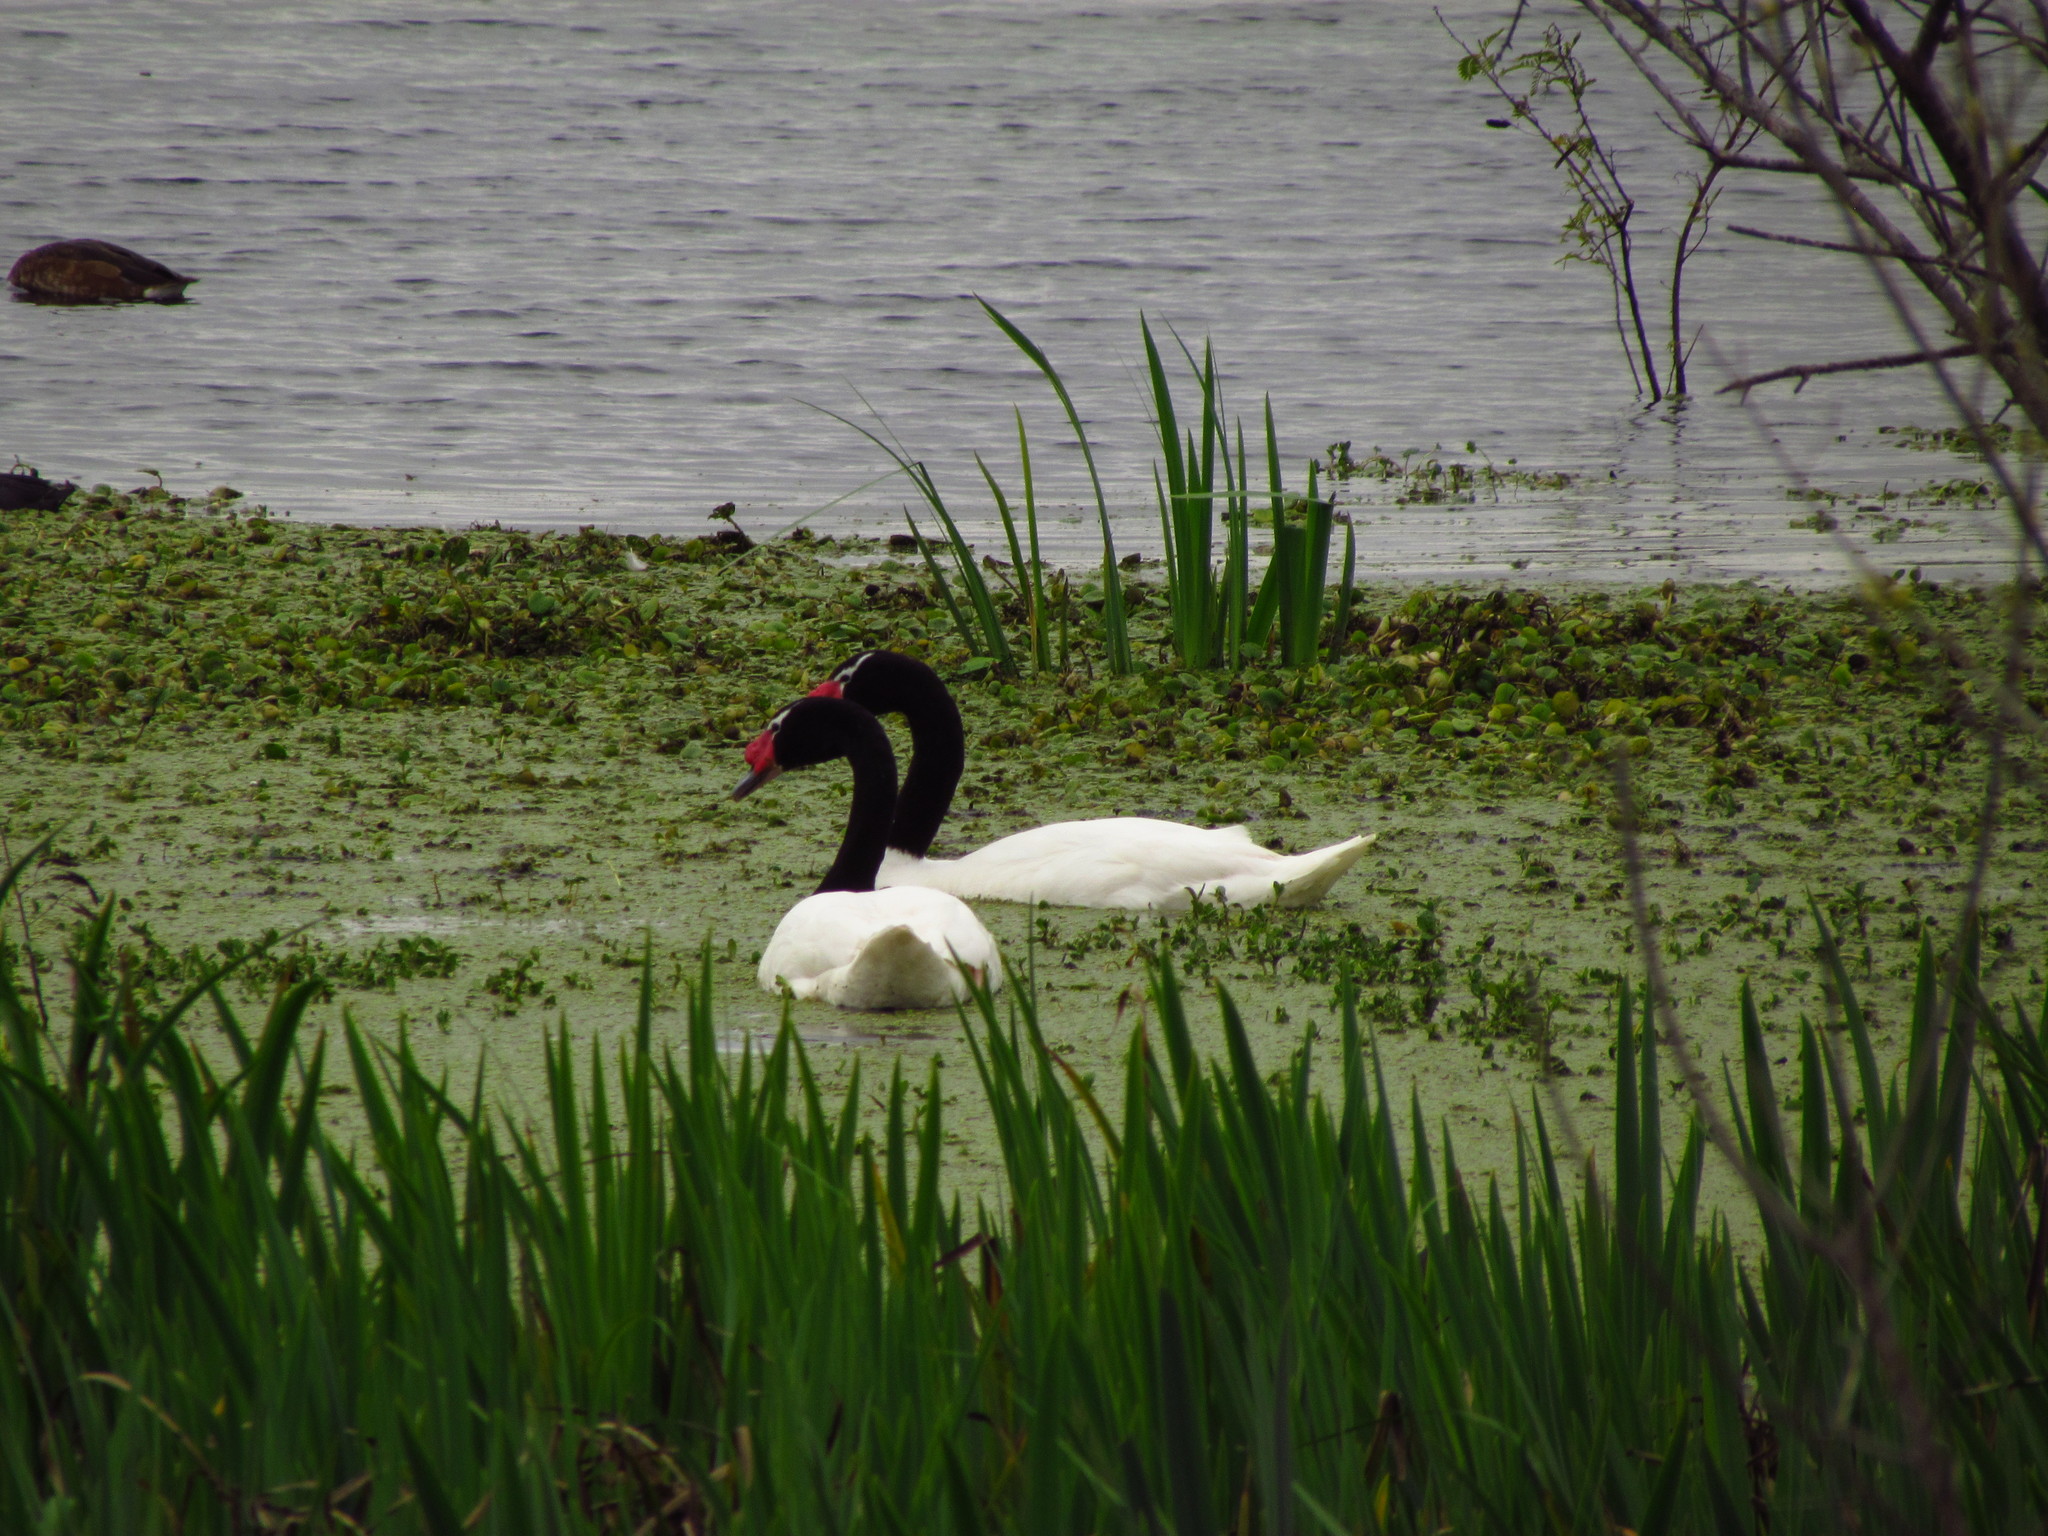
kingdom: Animalia
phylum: Chordata
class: Aves
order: Anseriformes
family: Anatidae
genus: Cygnus
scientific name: Cygnus melancoryphus
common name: Black-necked swan
